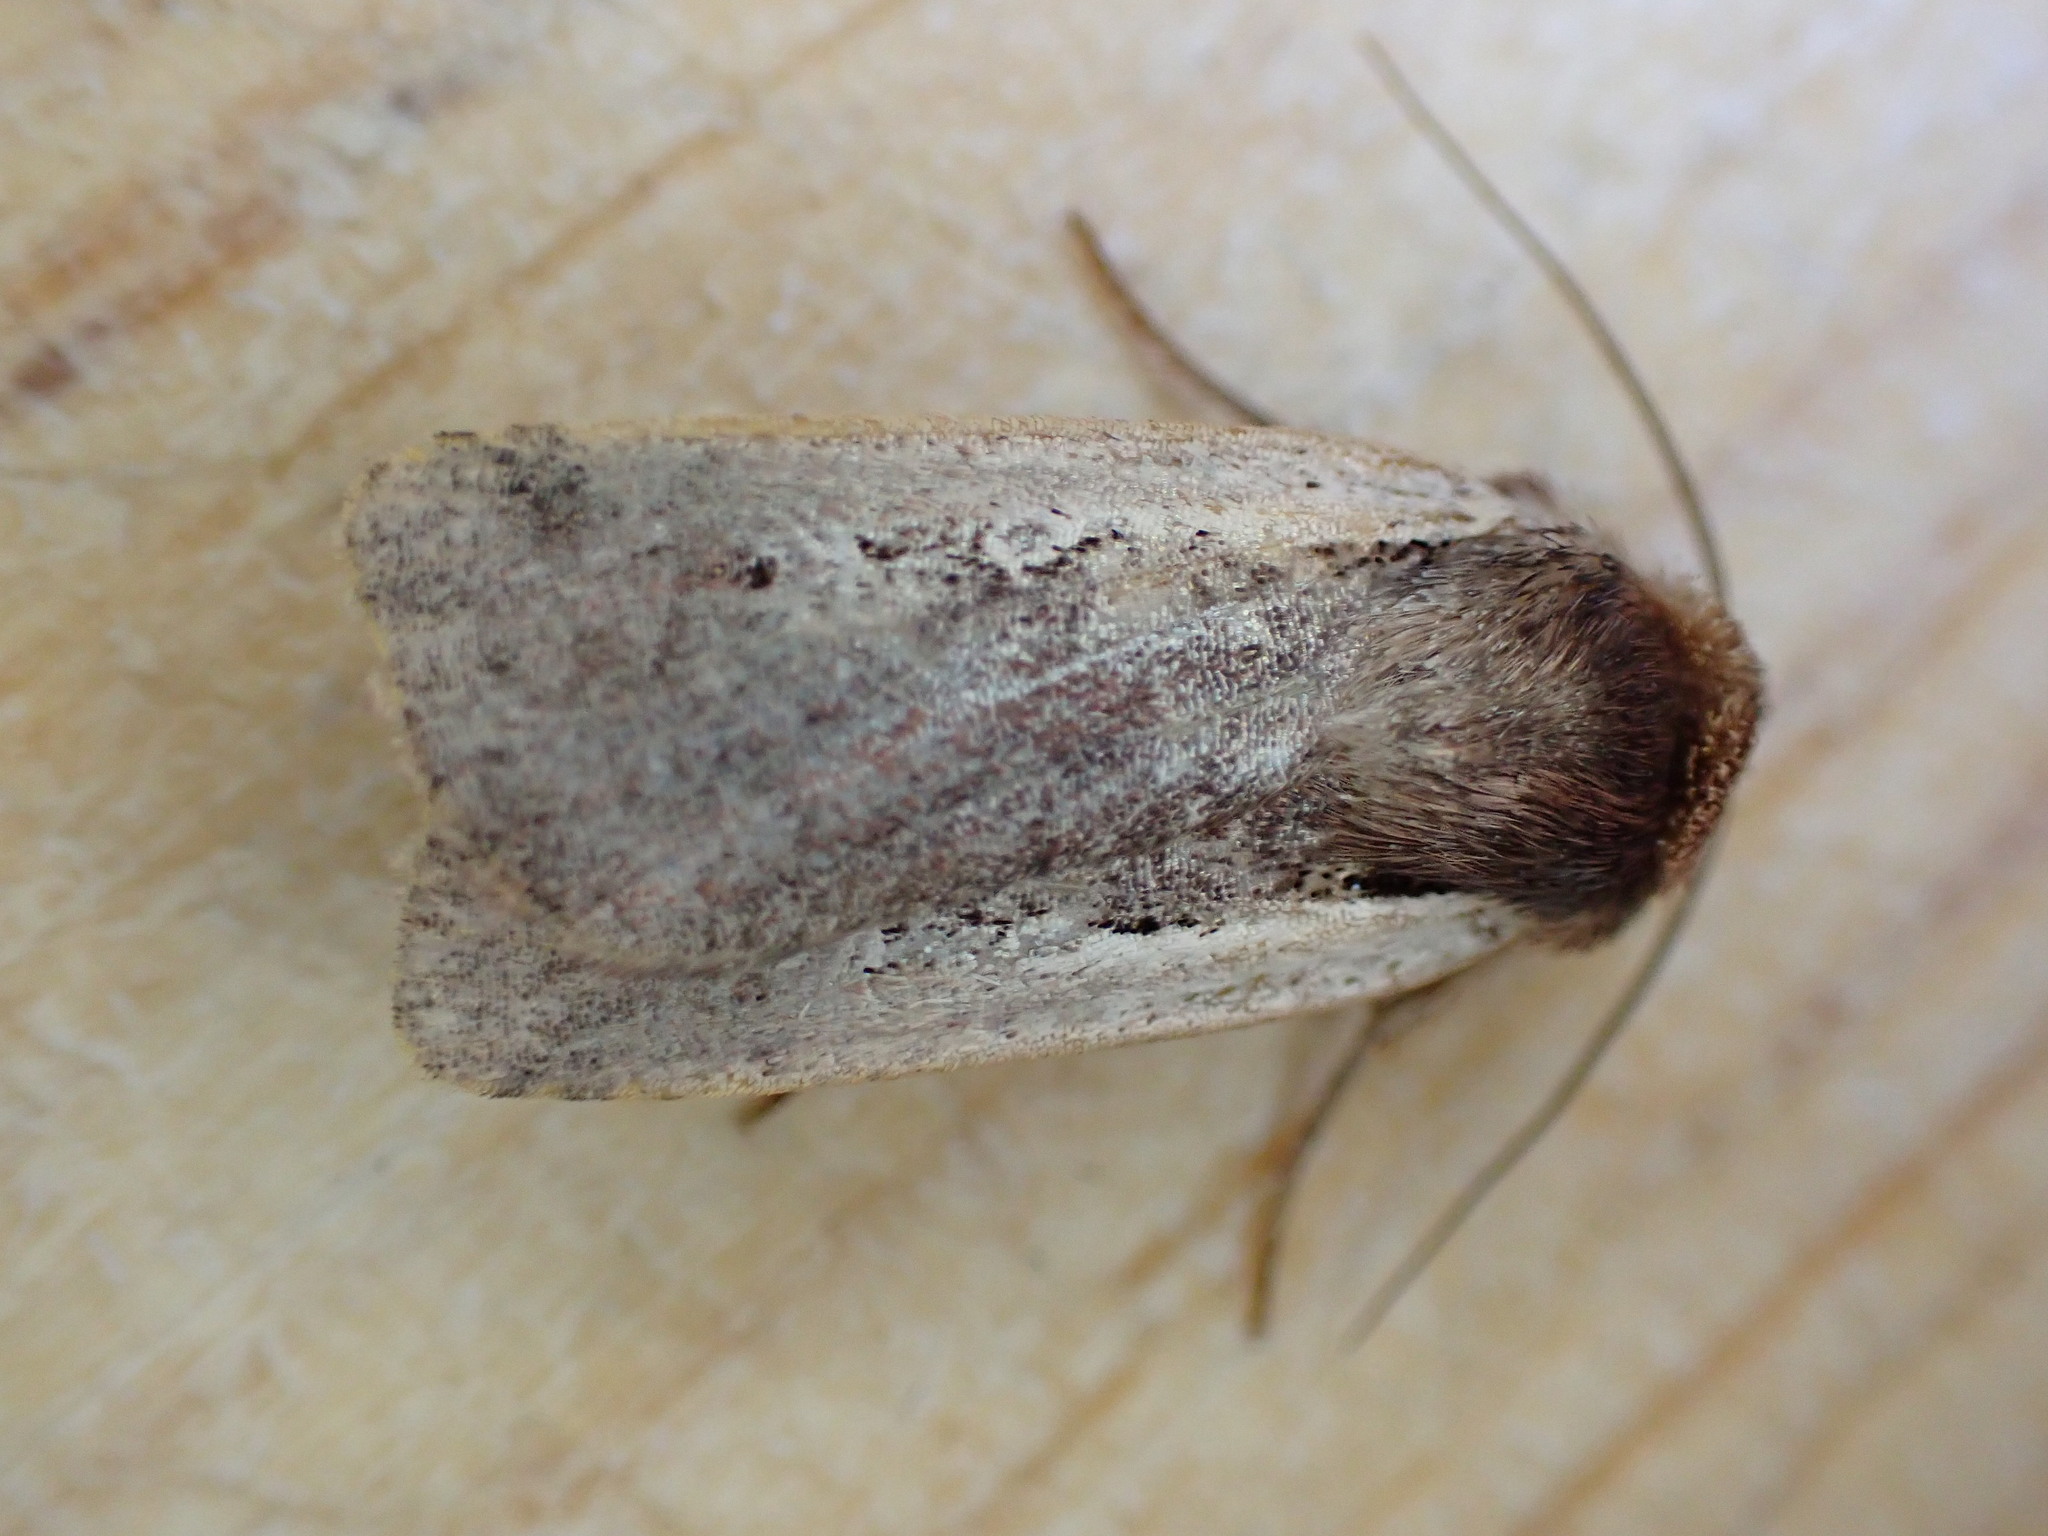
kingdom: Animalia
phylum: Arthropoda
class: Insecta
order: Lepidoptera
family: Noctuidae
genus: Ochropleura
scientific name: Ochropleura plecta
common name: Flame shoulder
